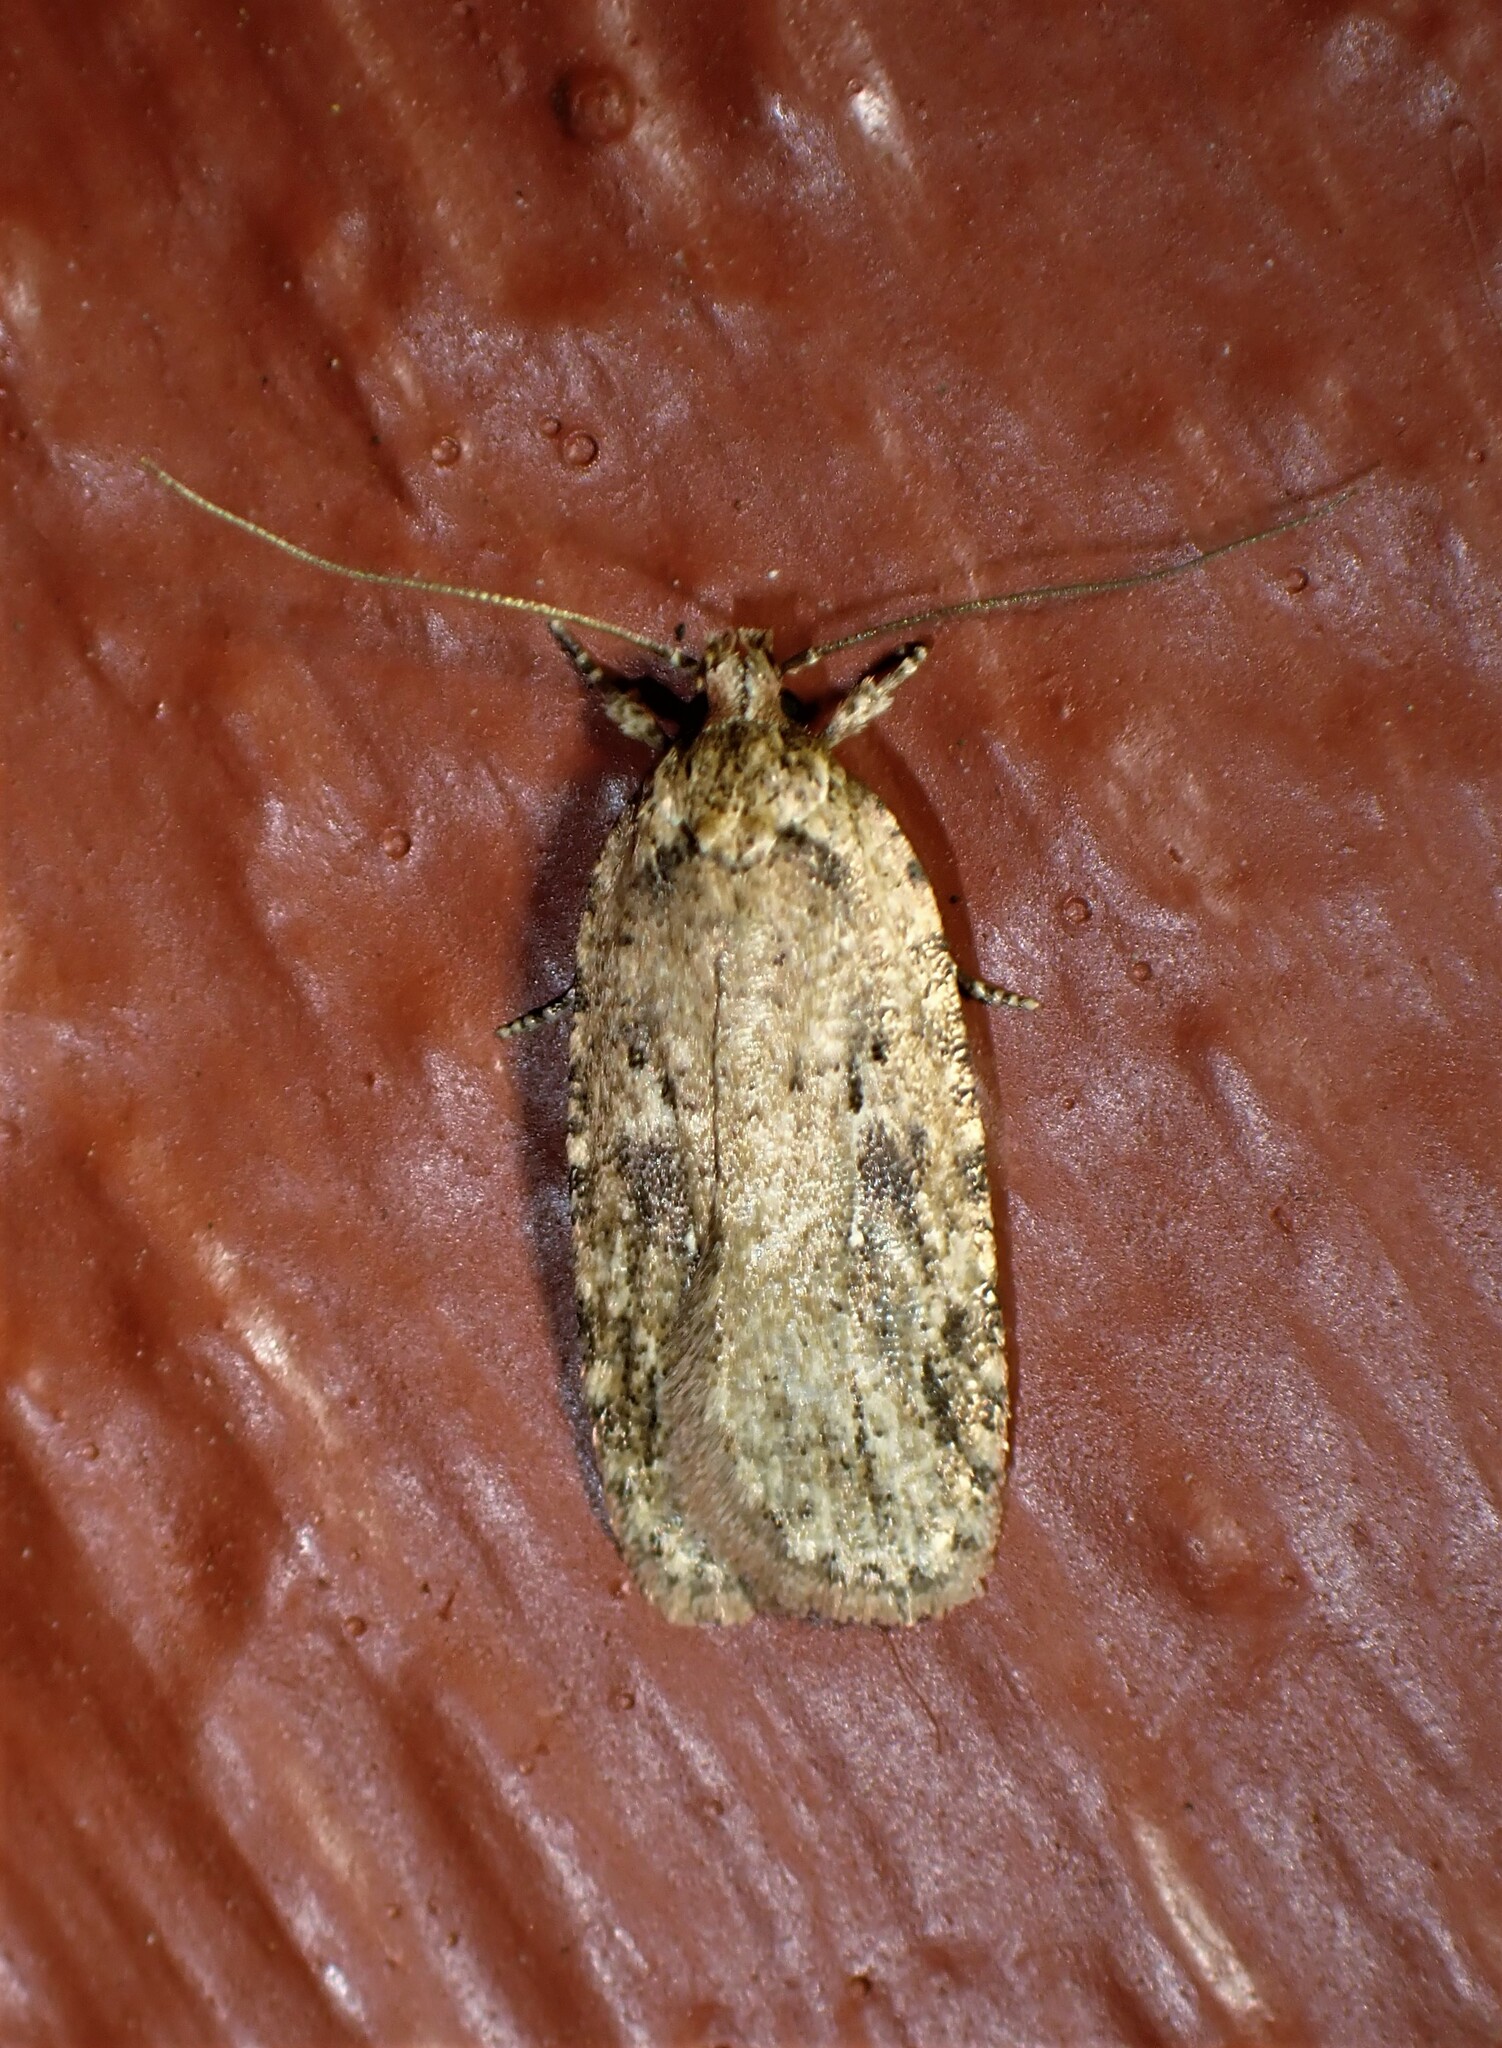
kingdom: Animalia
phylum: Arthropoda
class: Insecta
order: Lepidoptera
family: Depressariidae
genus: Agonopterix
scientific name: Agonopterix pulvipennella
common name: Goldenrod leafffolder
